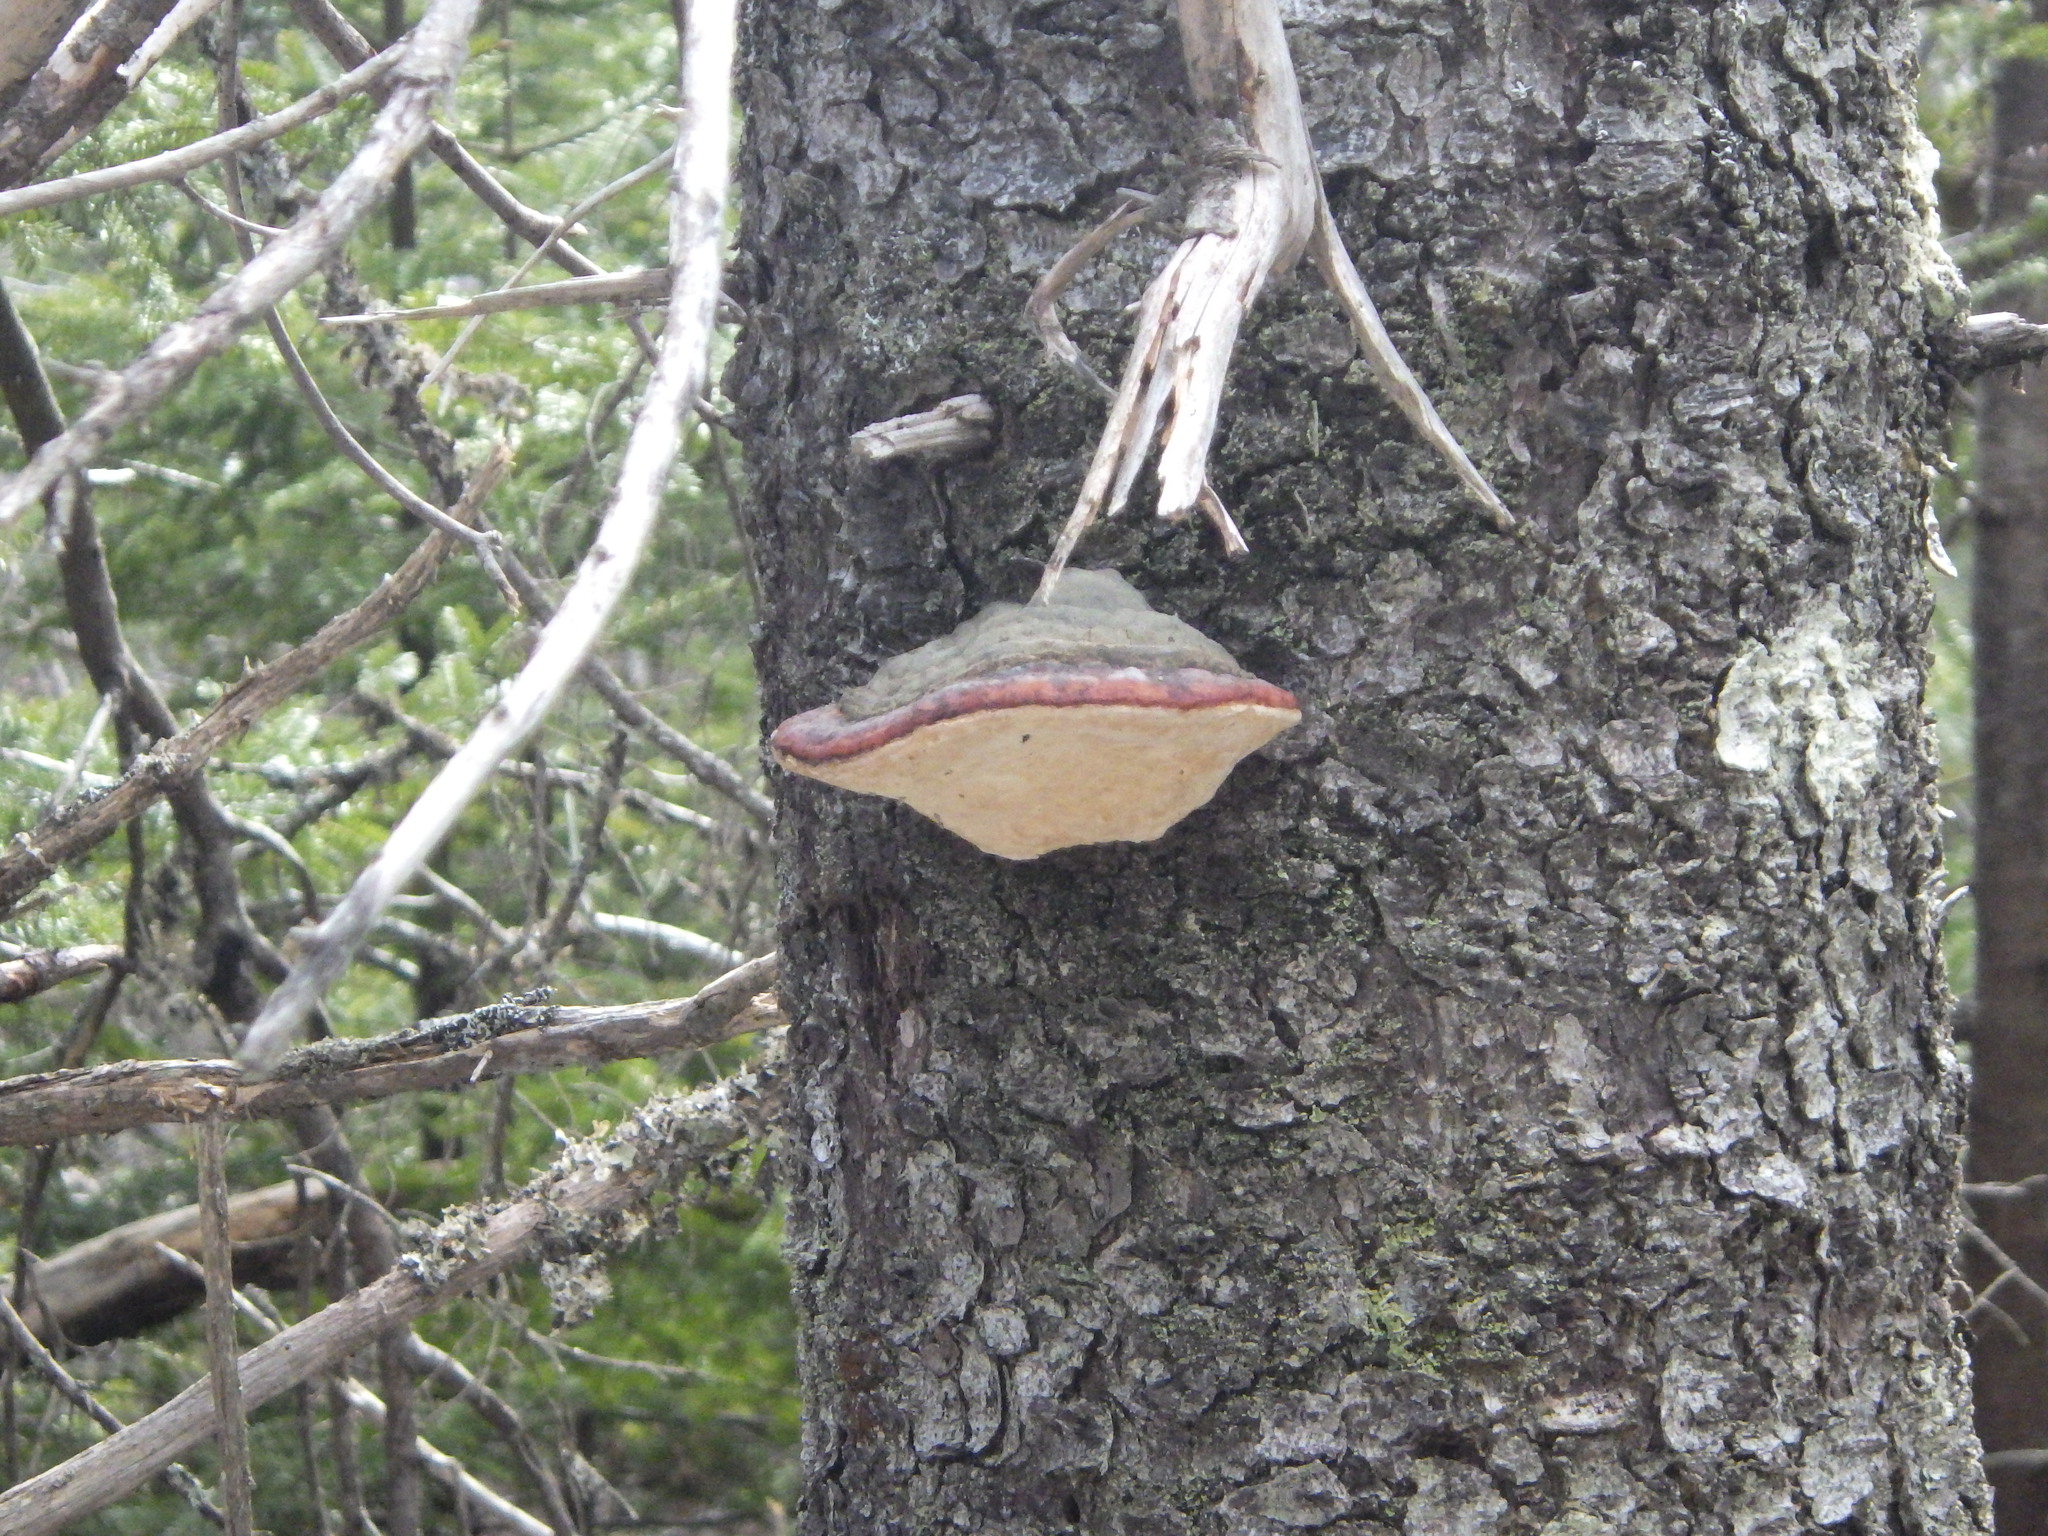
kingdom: Fungi
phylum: Basidiomycota
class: Agaricomycetes
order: Polyporales
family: Fomitopsidaceae
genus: Fomitopsis
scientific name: Fomitopsis mounceae
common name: Northern red belt
